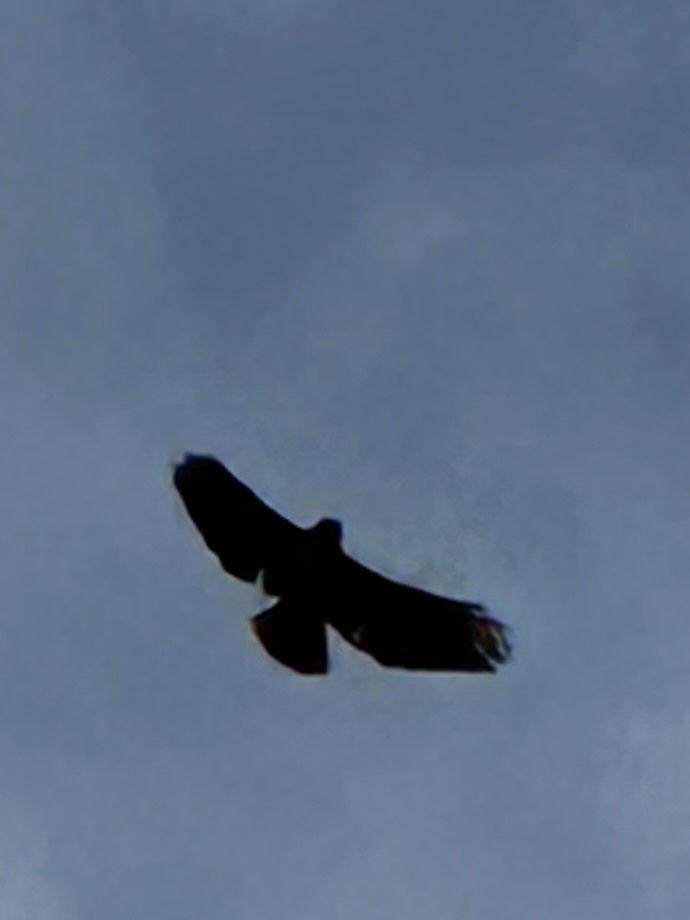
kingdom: Animalia
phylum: Chordata
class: Aves
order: Accipitriformes
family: Accipitridae
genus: Buteo
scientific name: Buteo jamaicensis
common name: Red-tailed hawk
